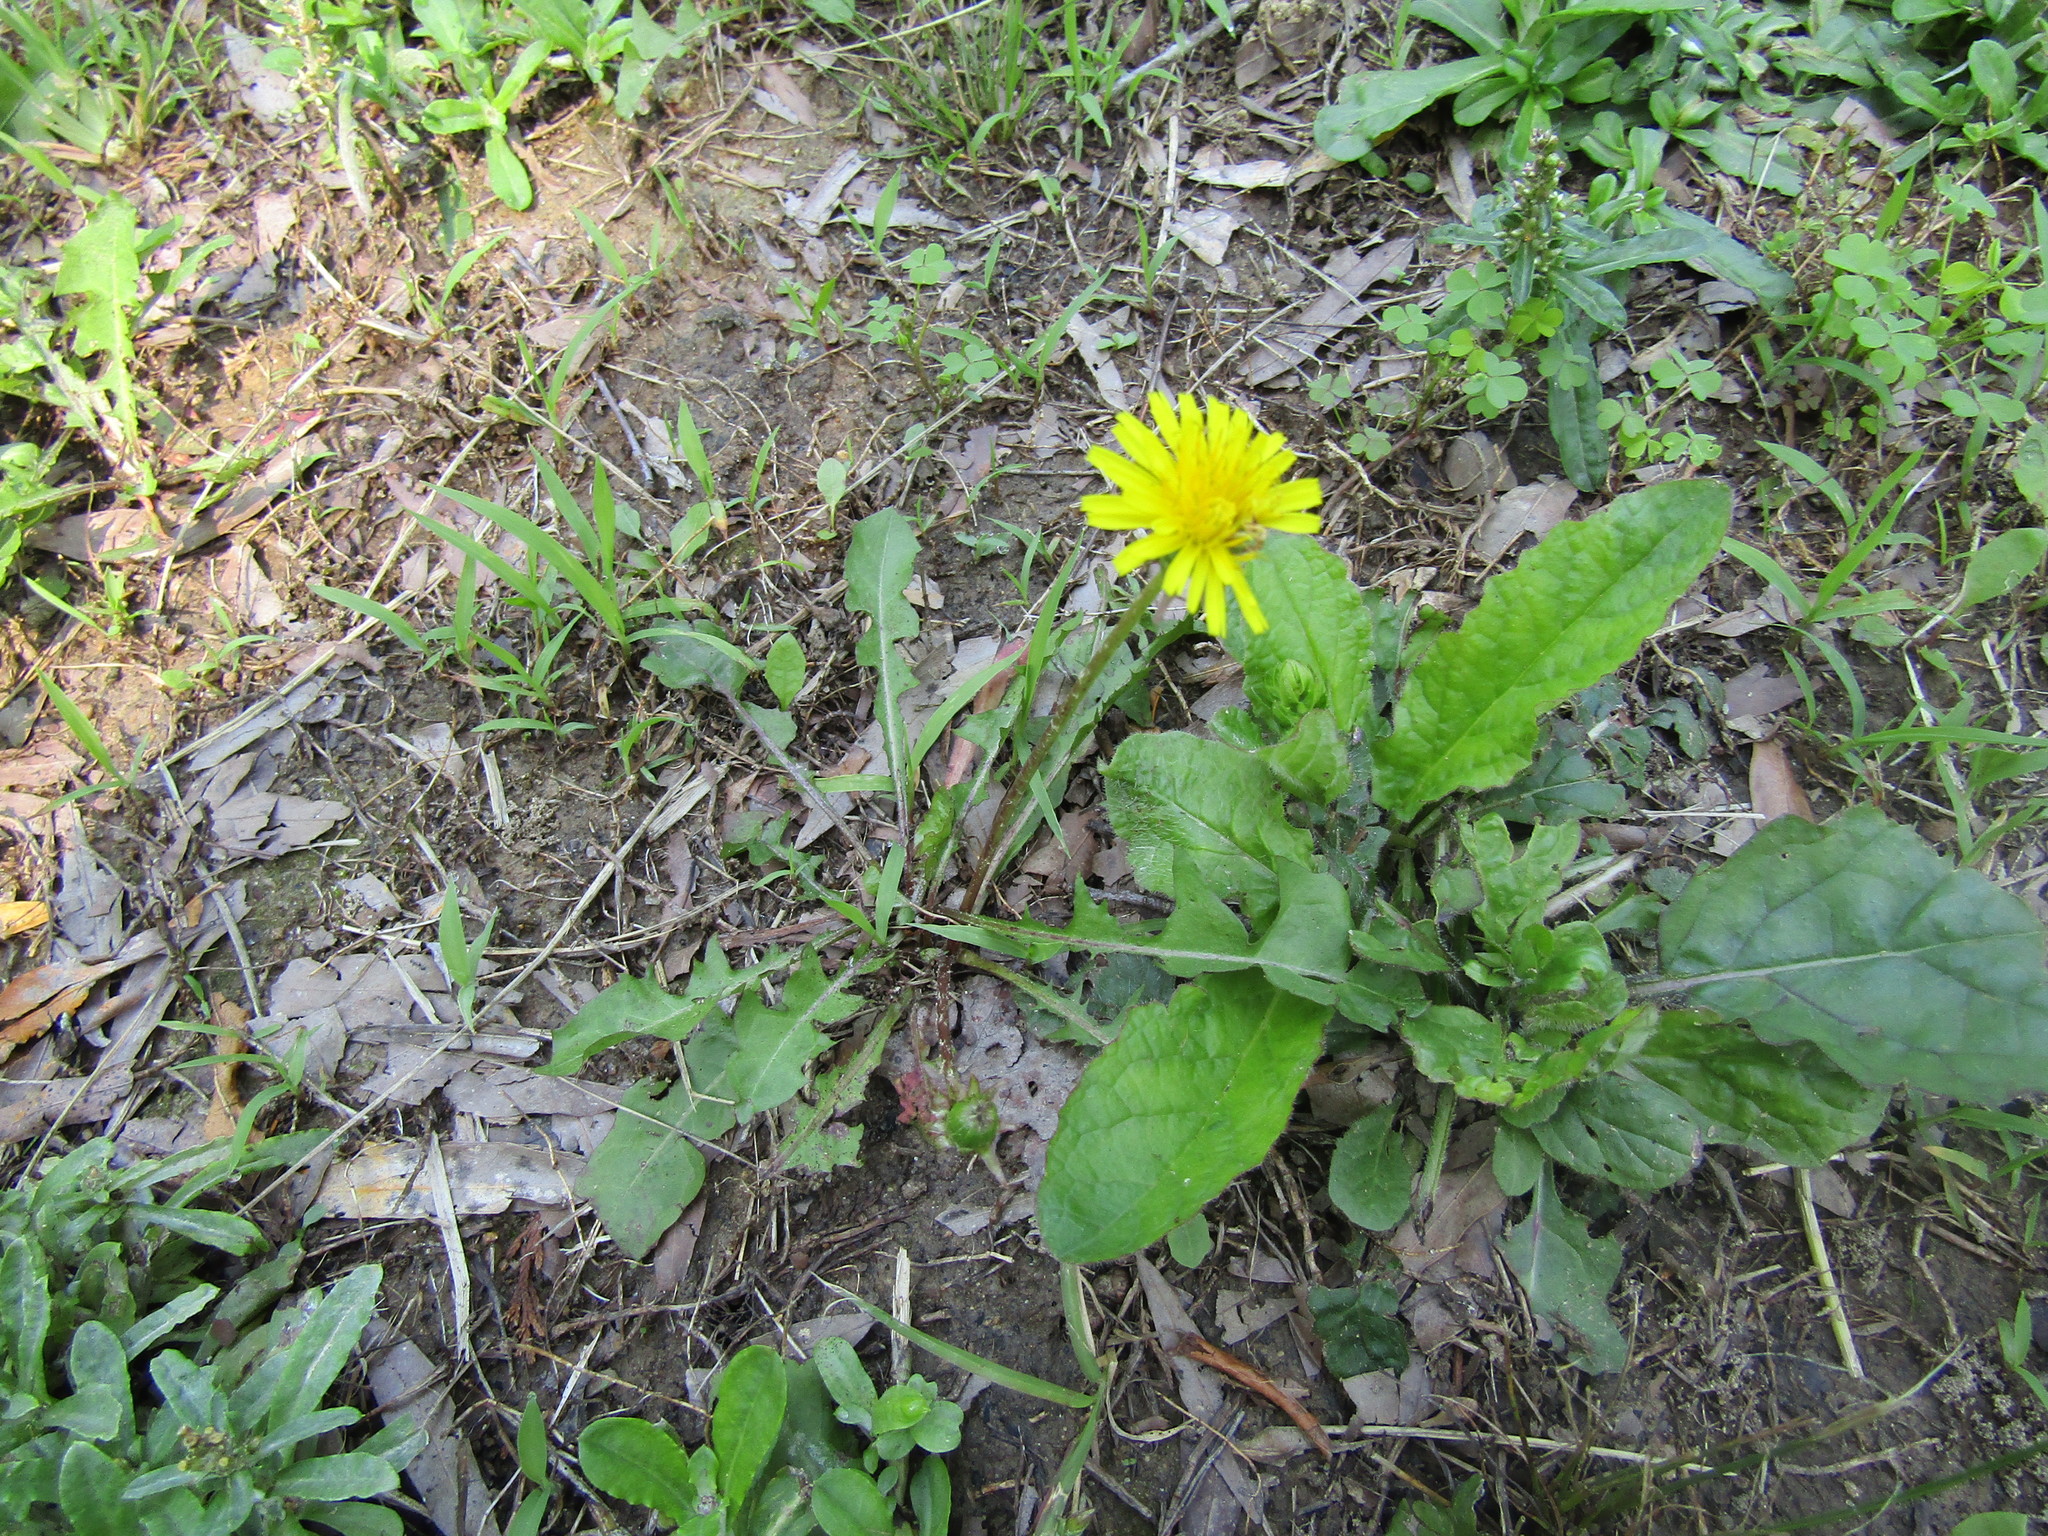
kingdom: Plantae
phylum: Tracheophyta
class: Magnoliopsida
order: Asterales
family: Asteraceae
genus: Taraxacum
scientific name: Taraxacum officinale
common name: Common dandelion
